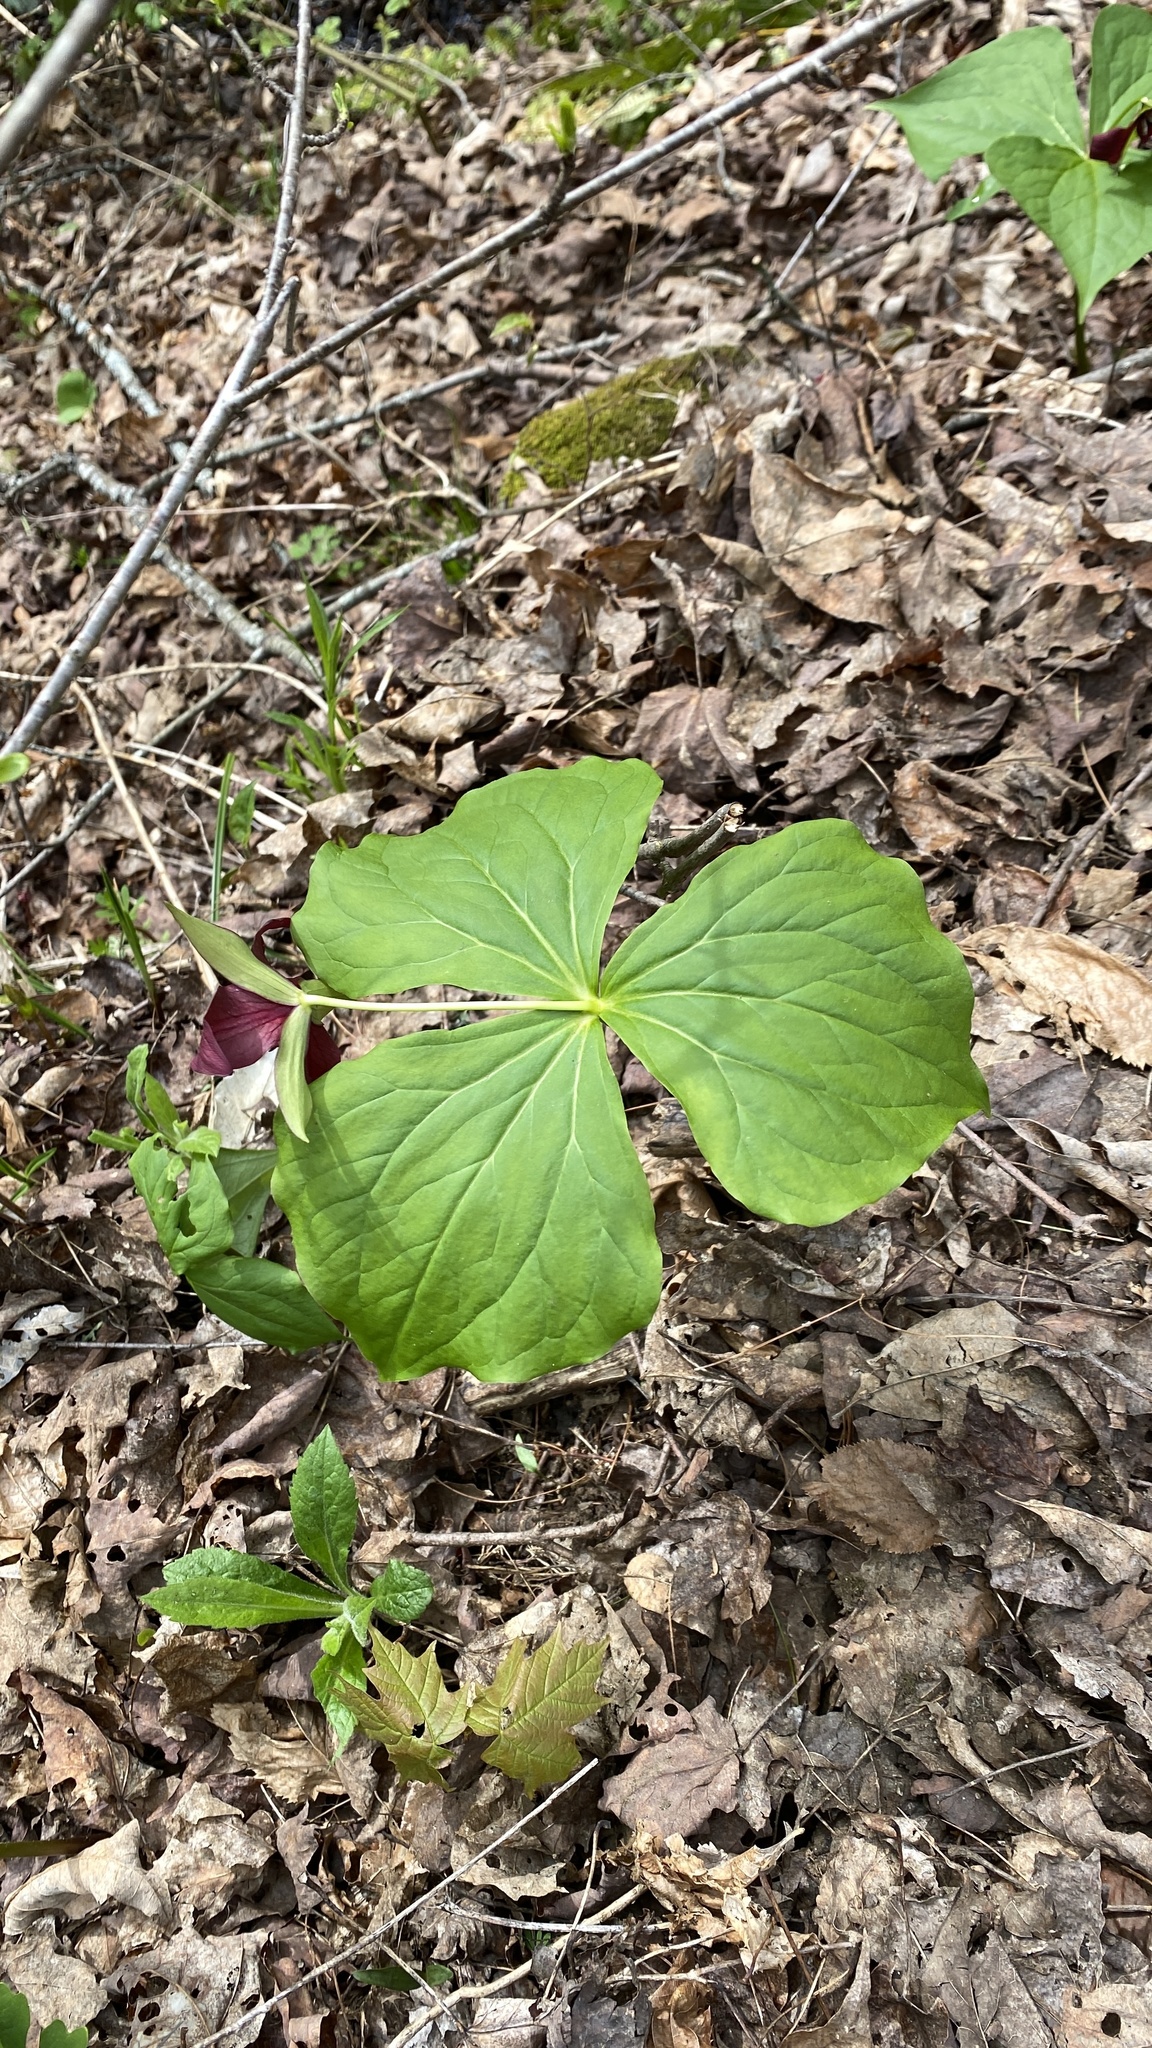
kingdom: Plantae
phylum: Tracheophyta
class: Liliopsida
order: Liliales
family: Melanthiaceae
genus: Trillium
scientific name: Trillium erectum
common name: Purple trillium
